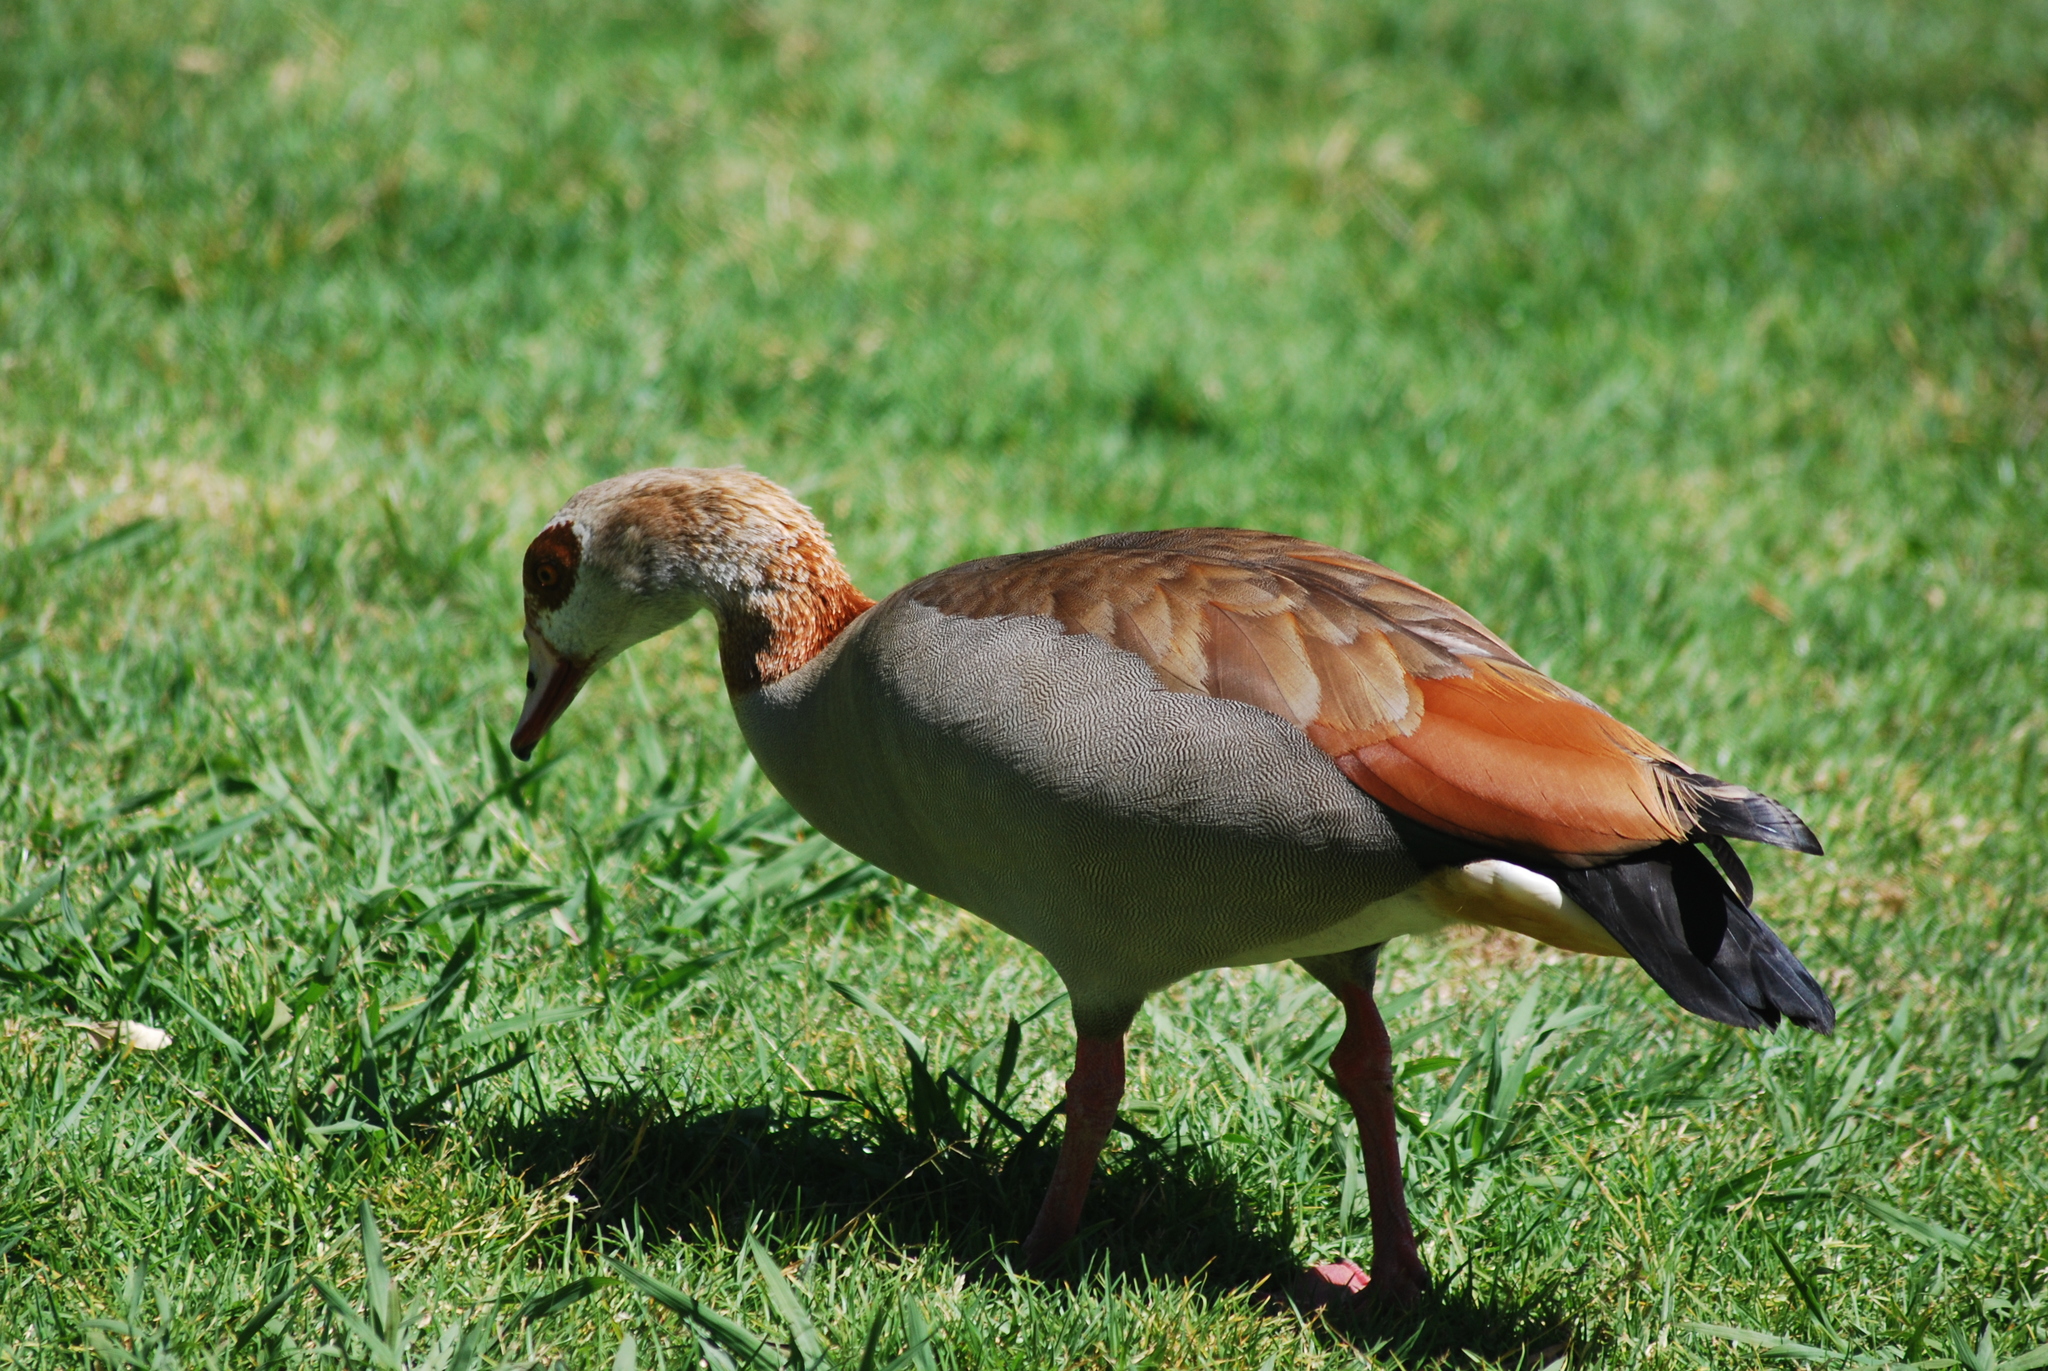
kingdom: Animalia
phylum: Chordata
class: Aves
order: Anseriformes
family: Anatidae
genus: Alopochen
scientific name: Alopochen aegyptiaca
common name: Egyptian goose
